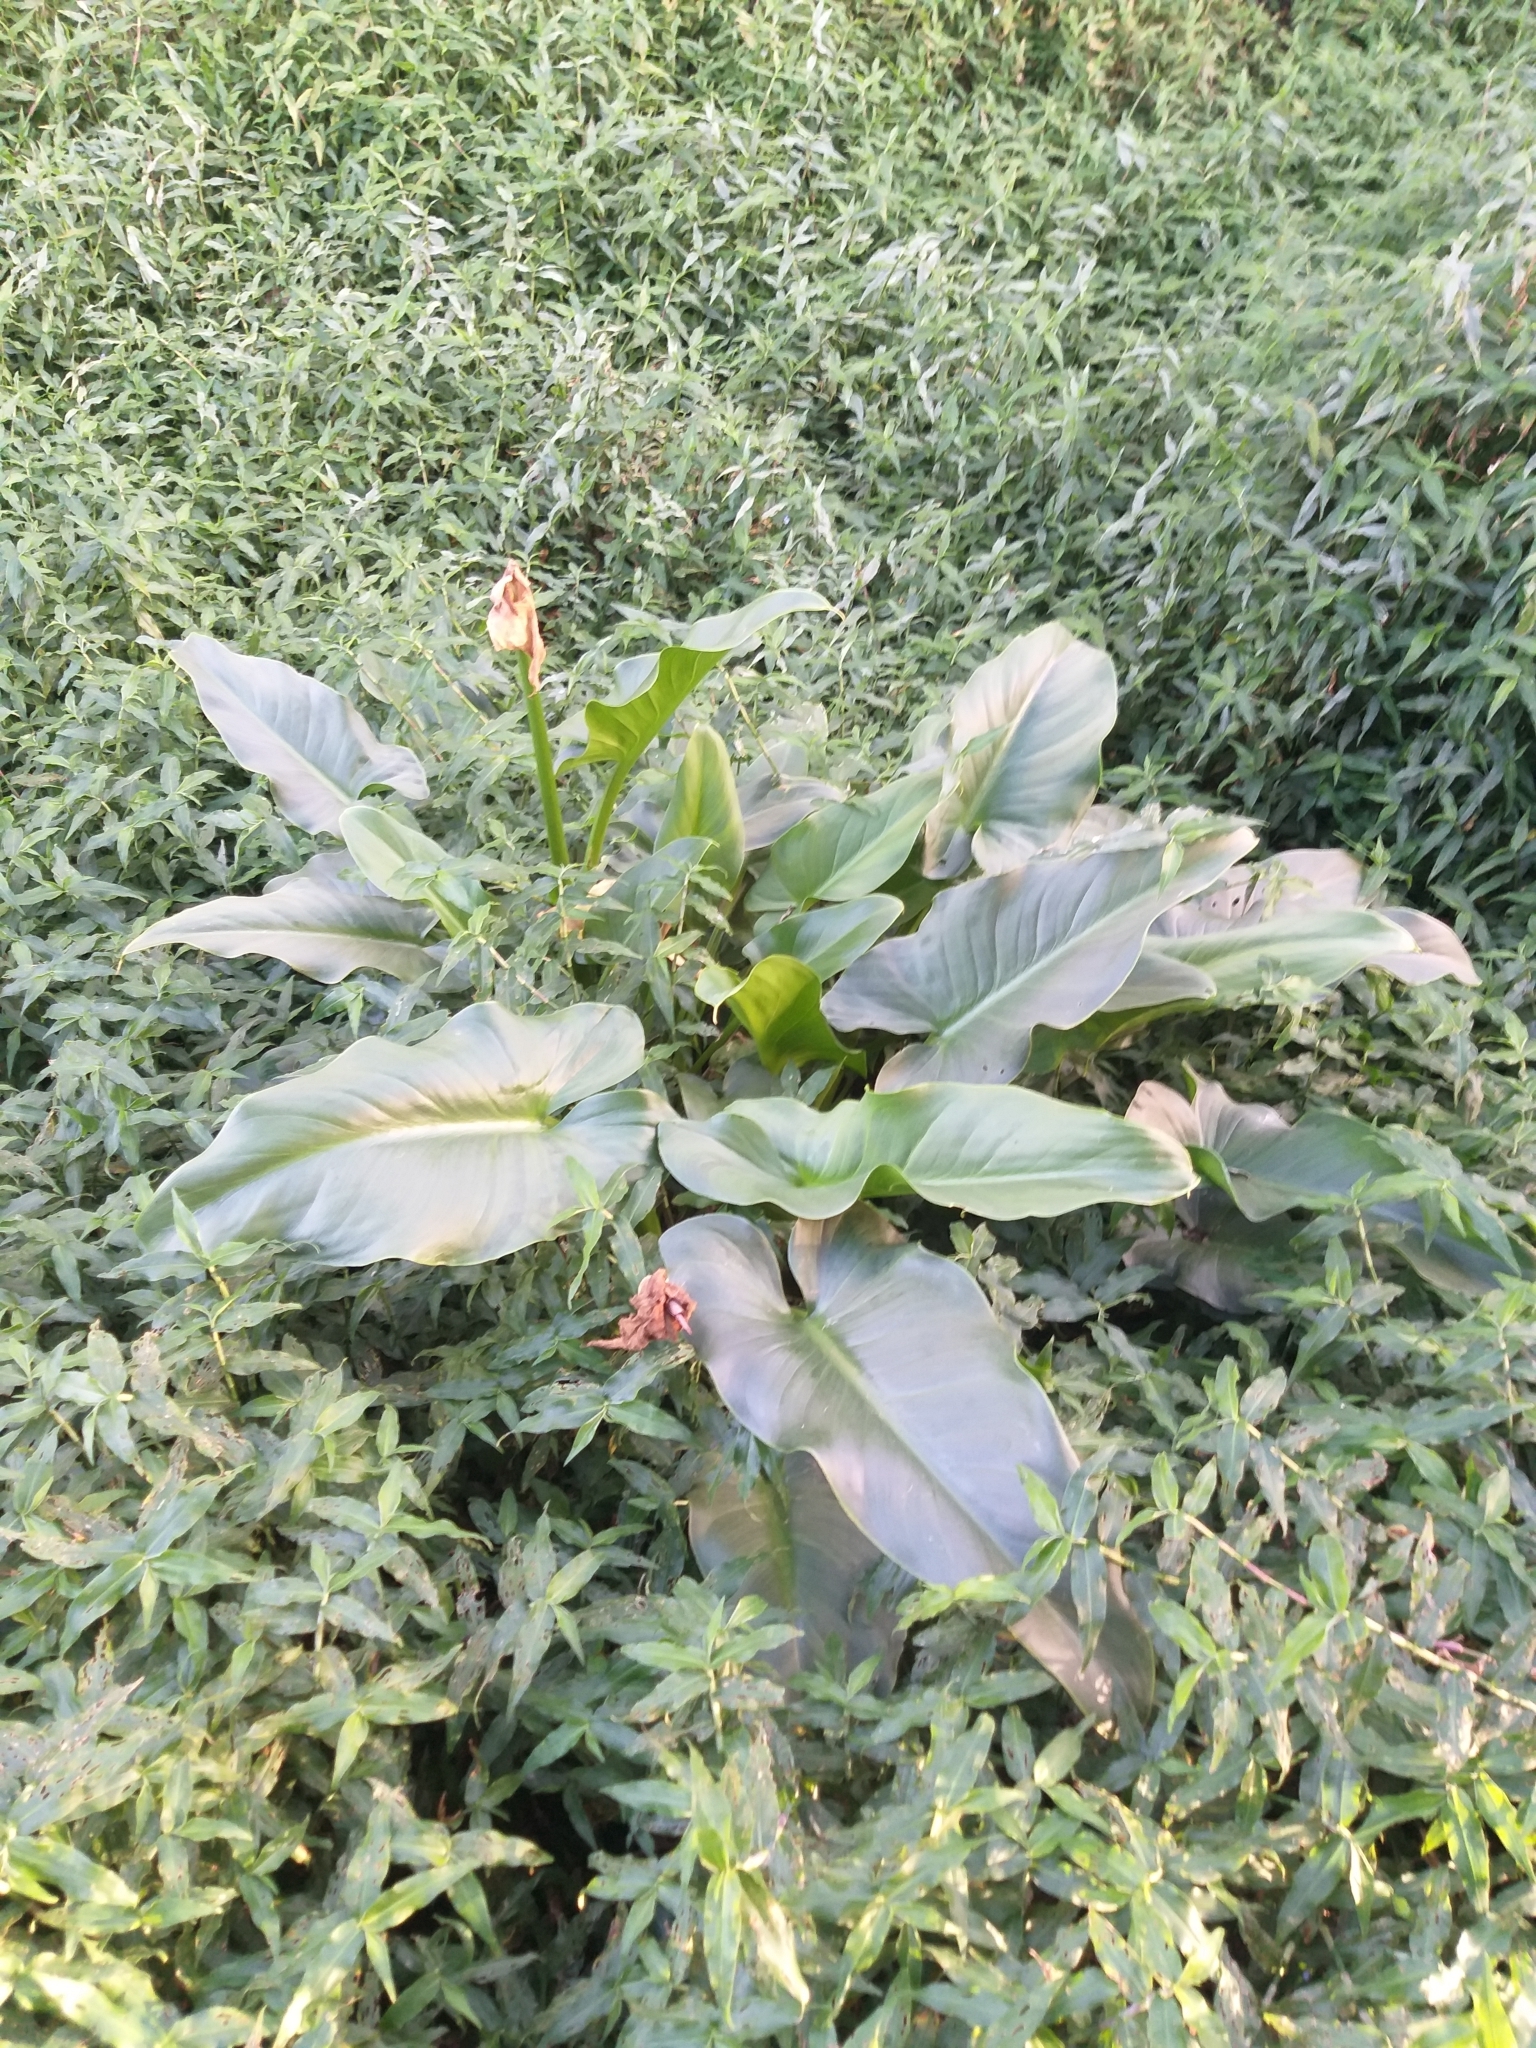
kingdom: Plantae
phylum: Tracheophyta
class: Liliopsida
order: Alismatales
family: Araceae
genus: Zantedeschia
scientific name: Zantedeschia aethiopica
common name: Altar-lily
